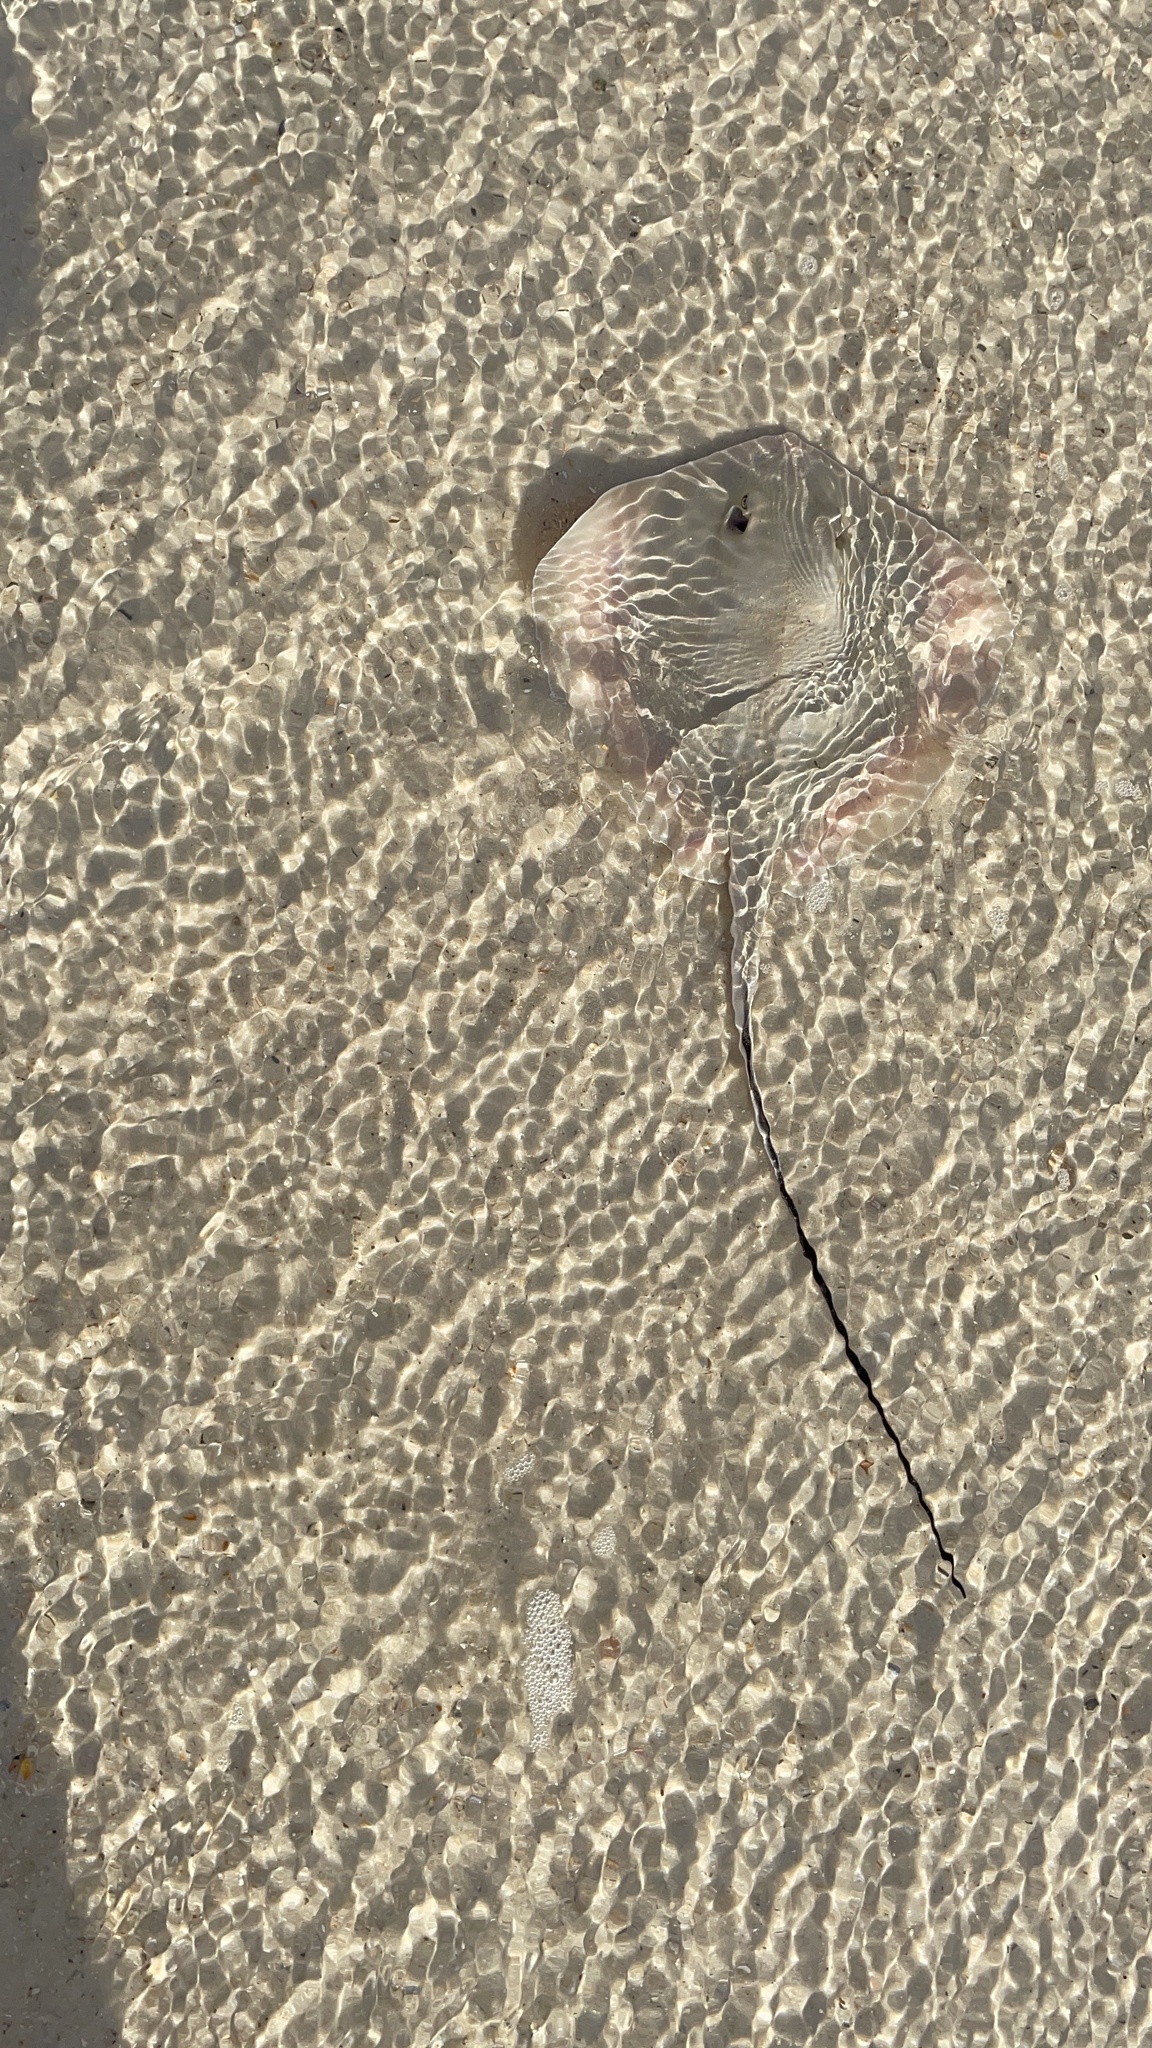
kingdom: Animalia
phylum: Chordata
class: Elasmobranchii
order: Myliobatiformes
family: Dasyatidae
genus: Hypanus
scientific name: Hypanus
